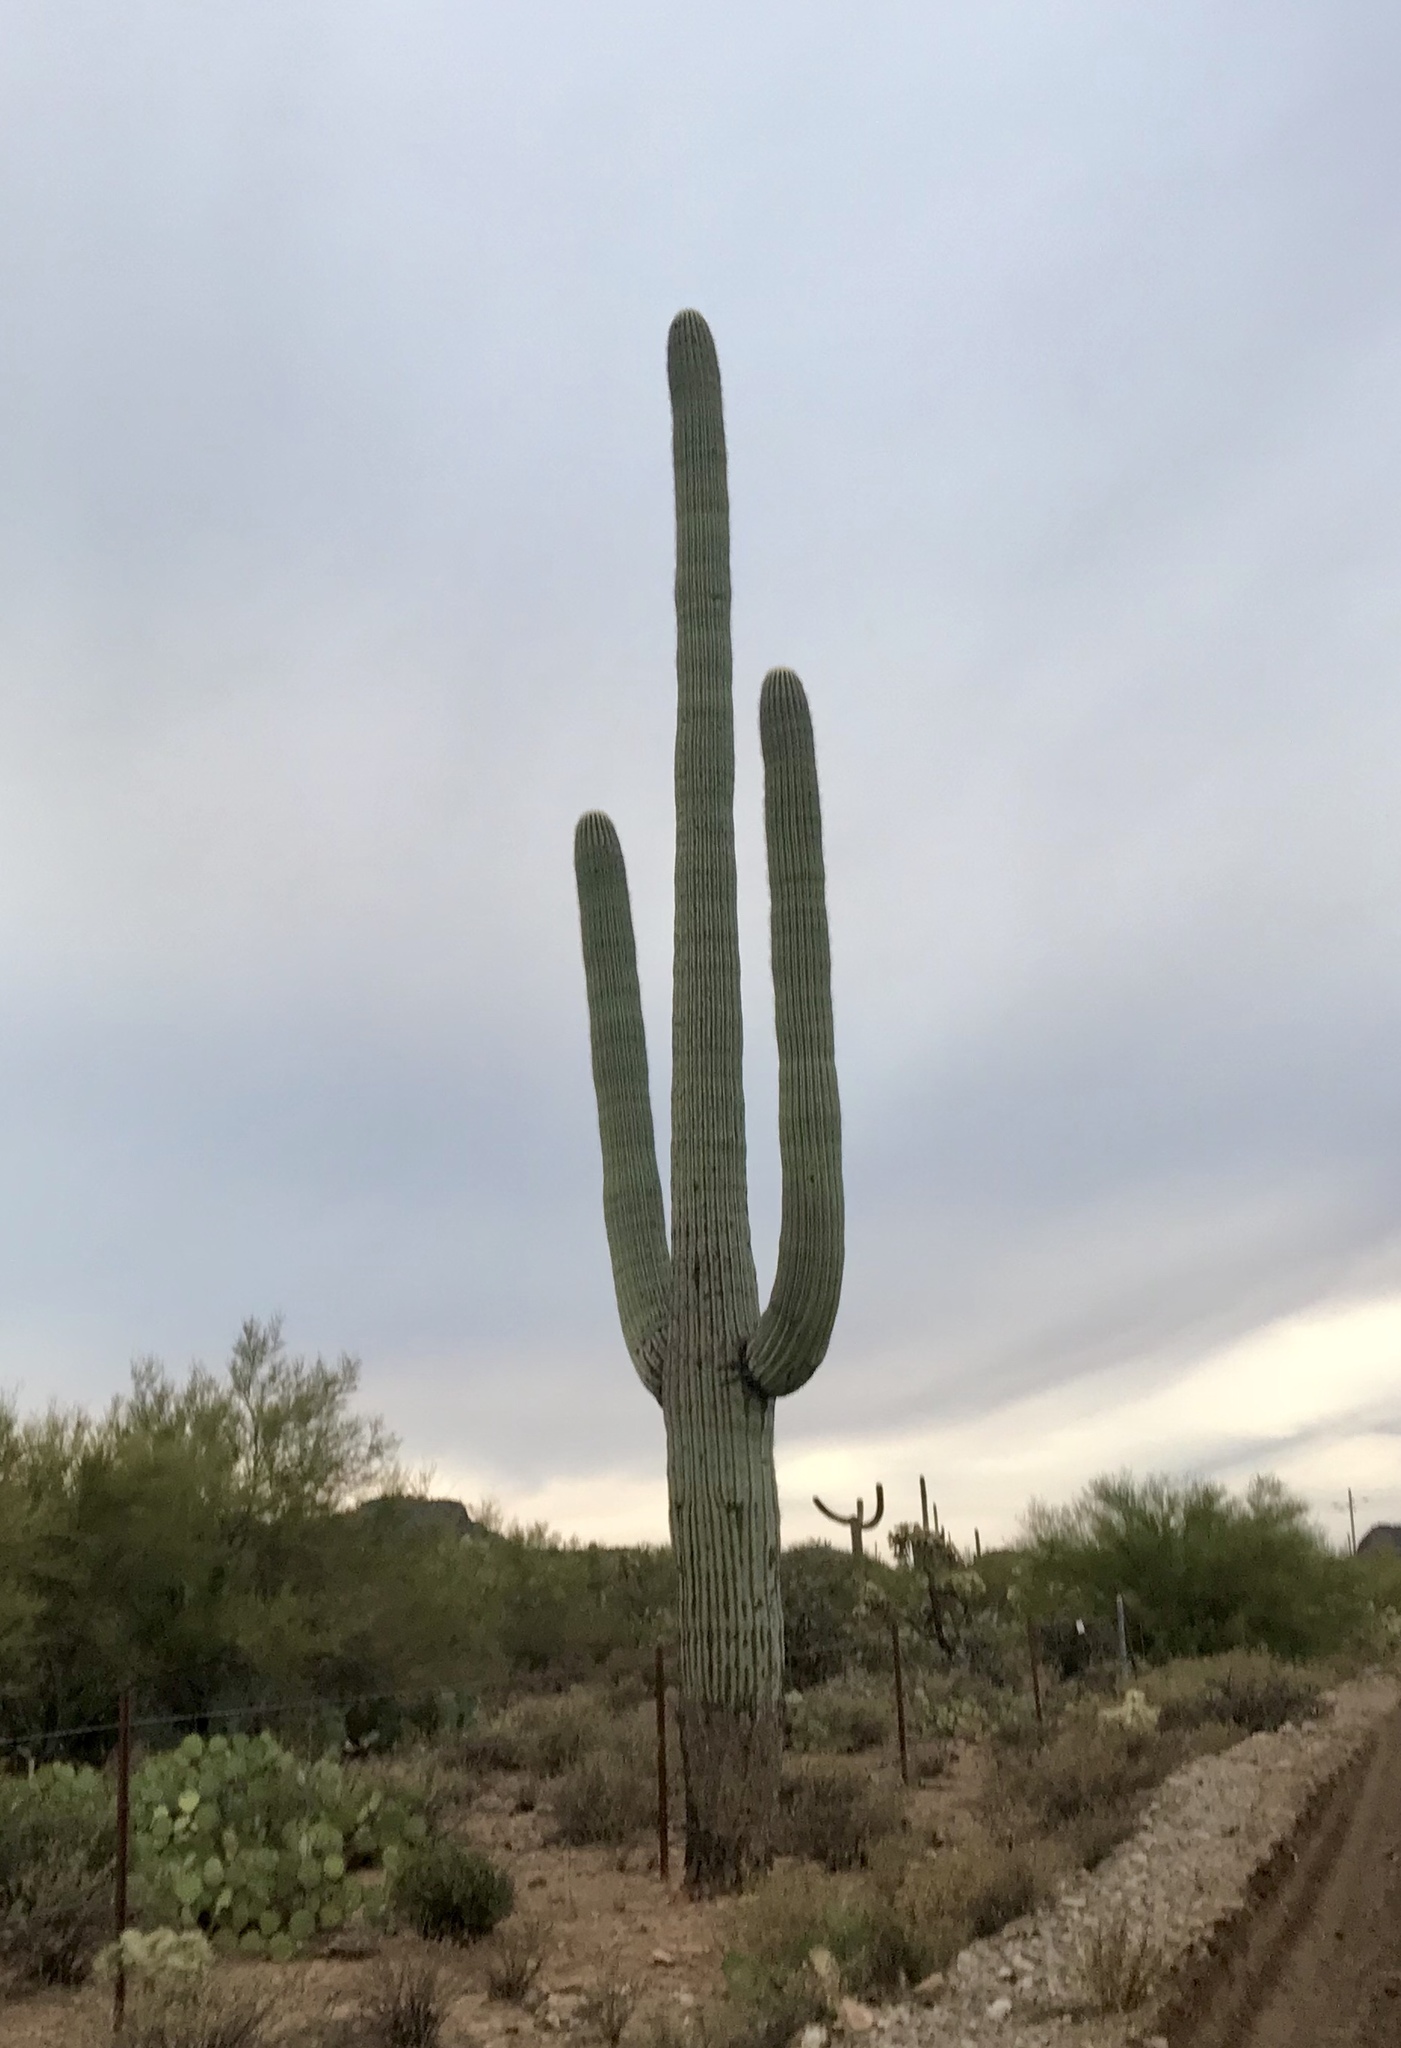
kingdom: Plantae
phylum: Tracheophyta
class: Magnoliopsida
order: Caryophyllales
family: Cactaceae
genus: Carnegiea
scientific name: Carnegiea gigantea
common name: Saguaro
